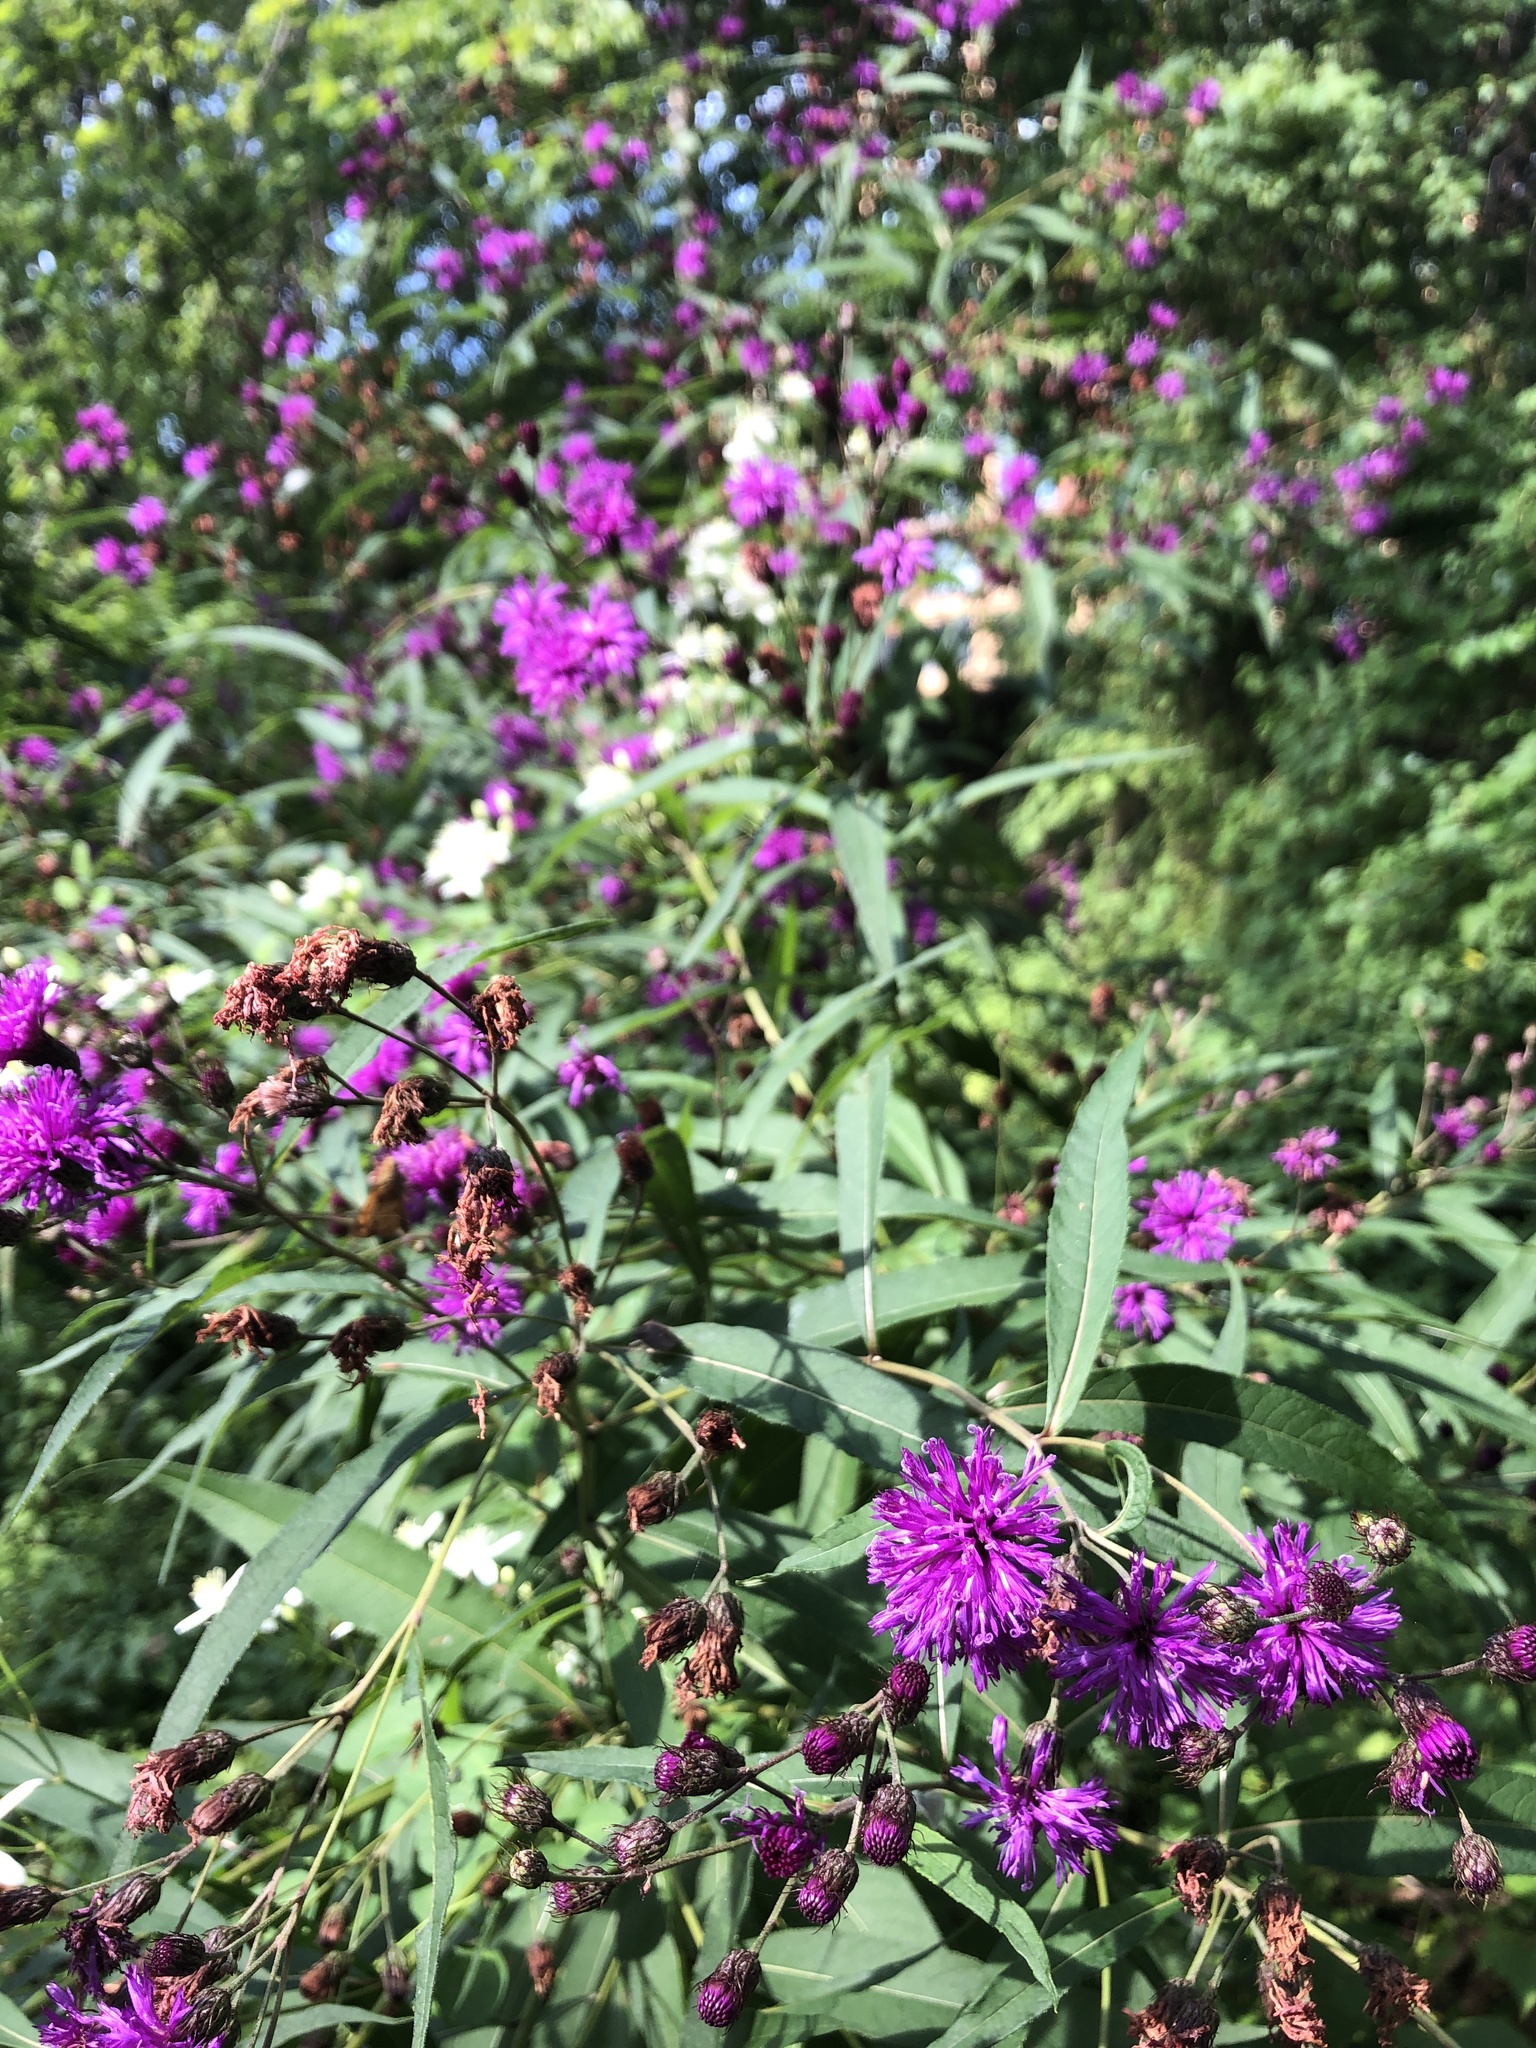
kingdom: Plantae
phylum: Tracheophyta
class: Magnoliopsida
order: Asterales
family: Asteraceae
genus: Vernonia
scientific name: Vernonia noveboracensis
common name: New york ironweed
